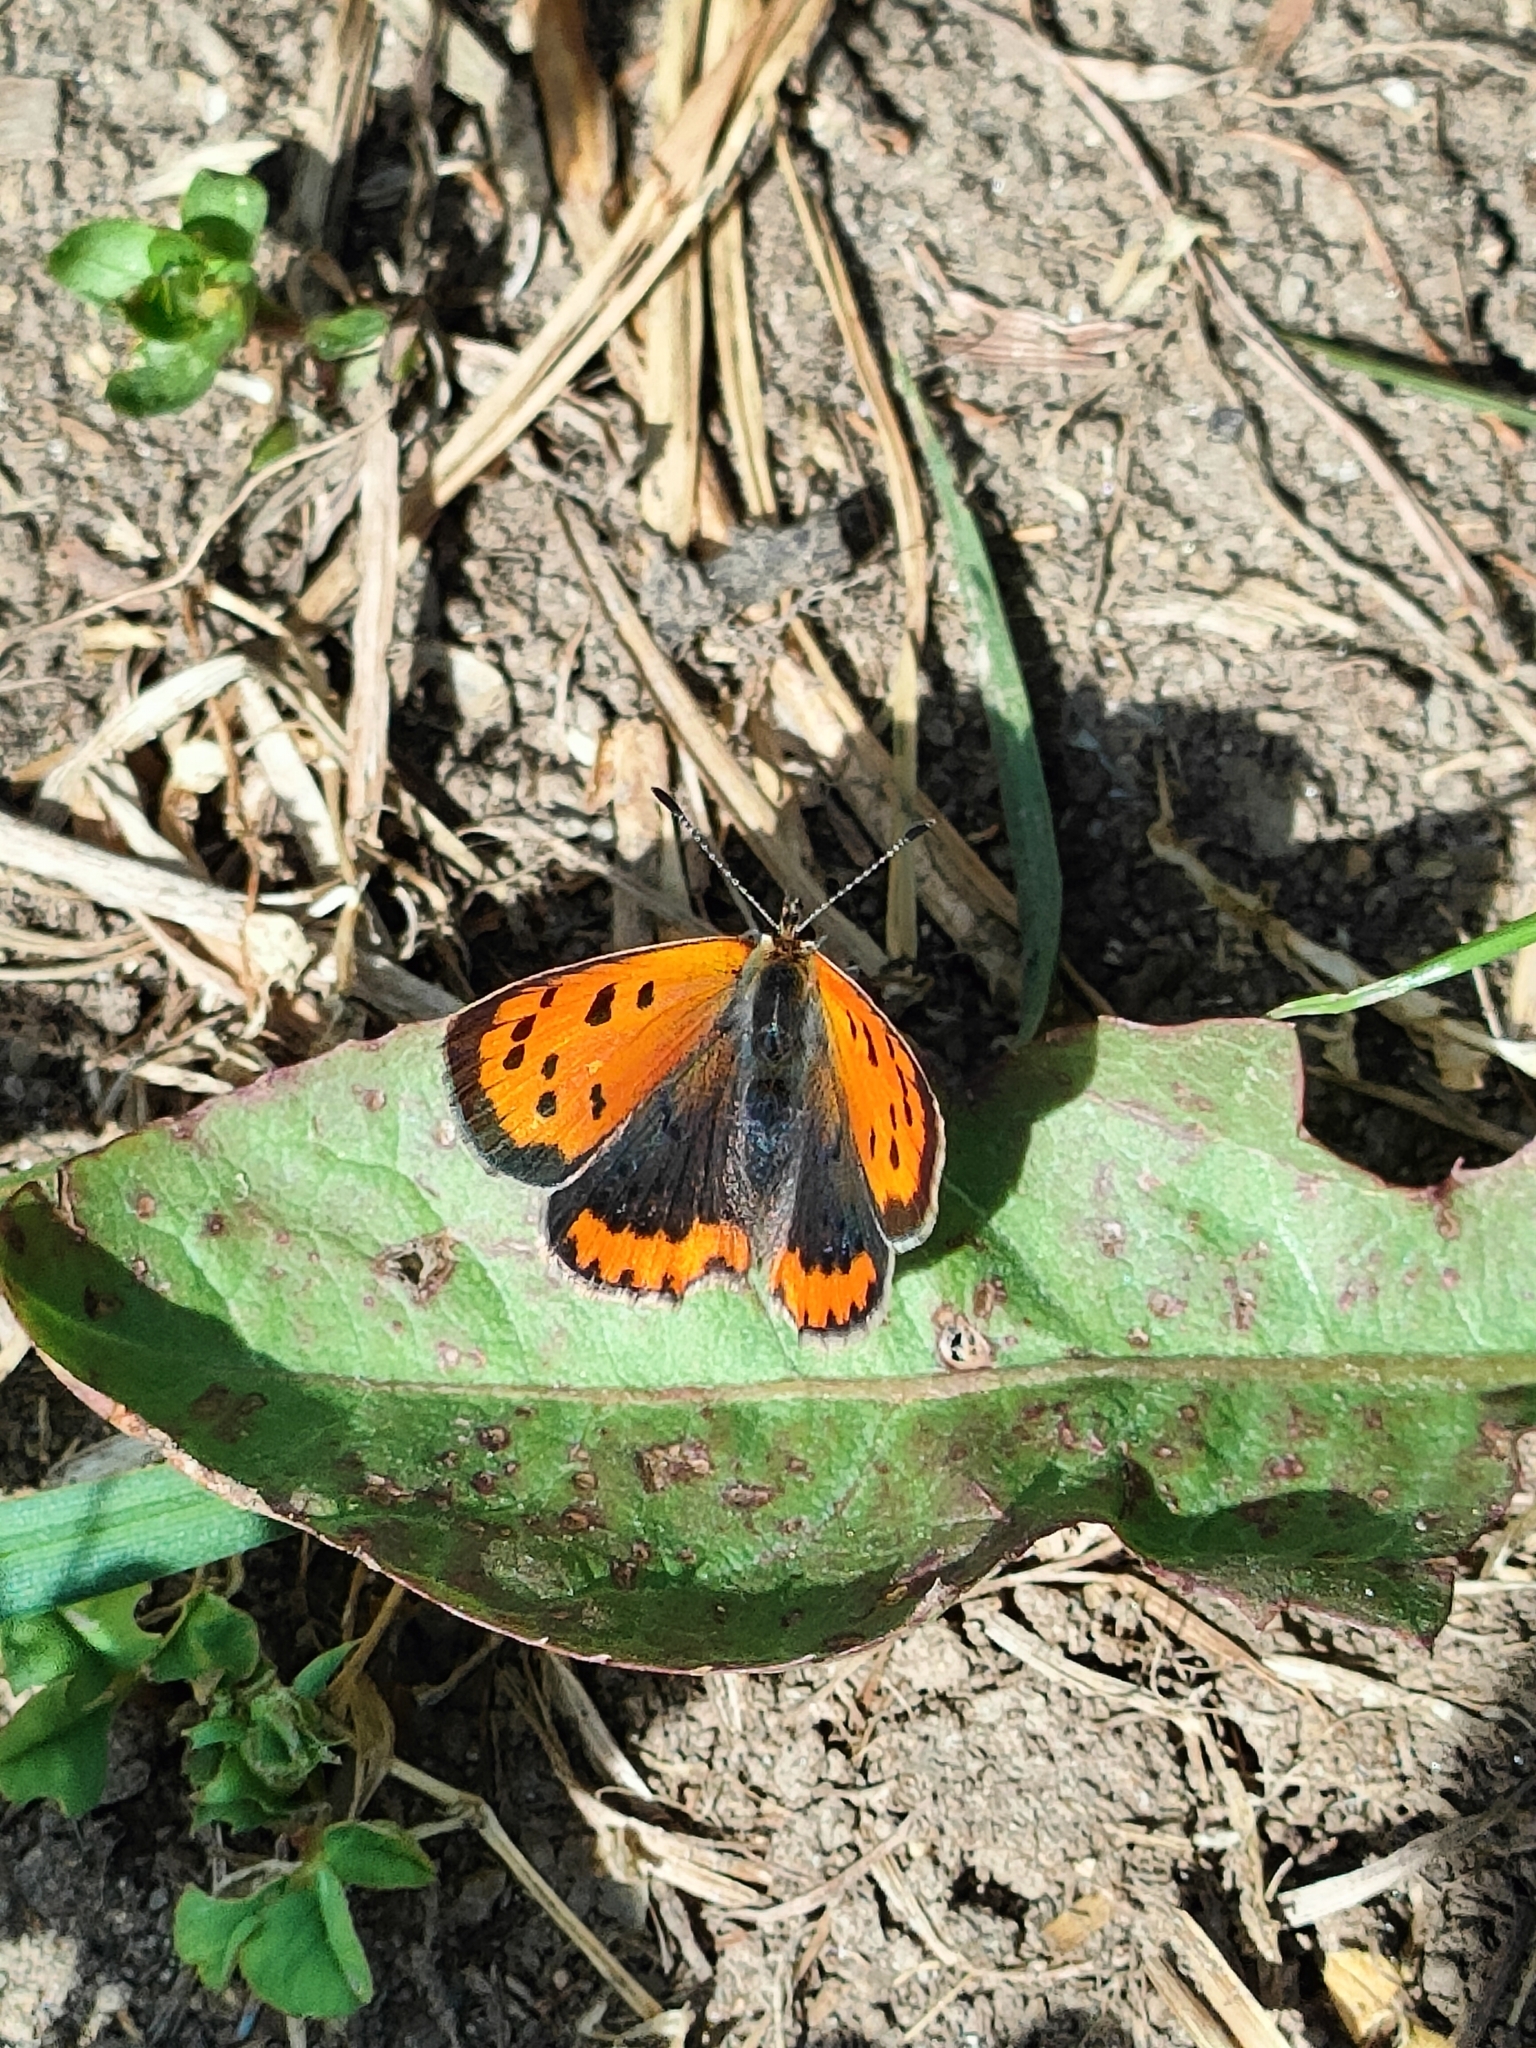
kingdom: Animalia
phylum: Arthropoda
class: Insecta
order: Lepidoptera
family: Lycaenidae
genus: Lycaena
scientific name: Lycaena phlaeas
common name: Small copper
